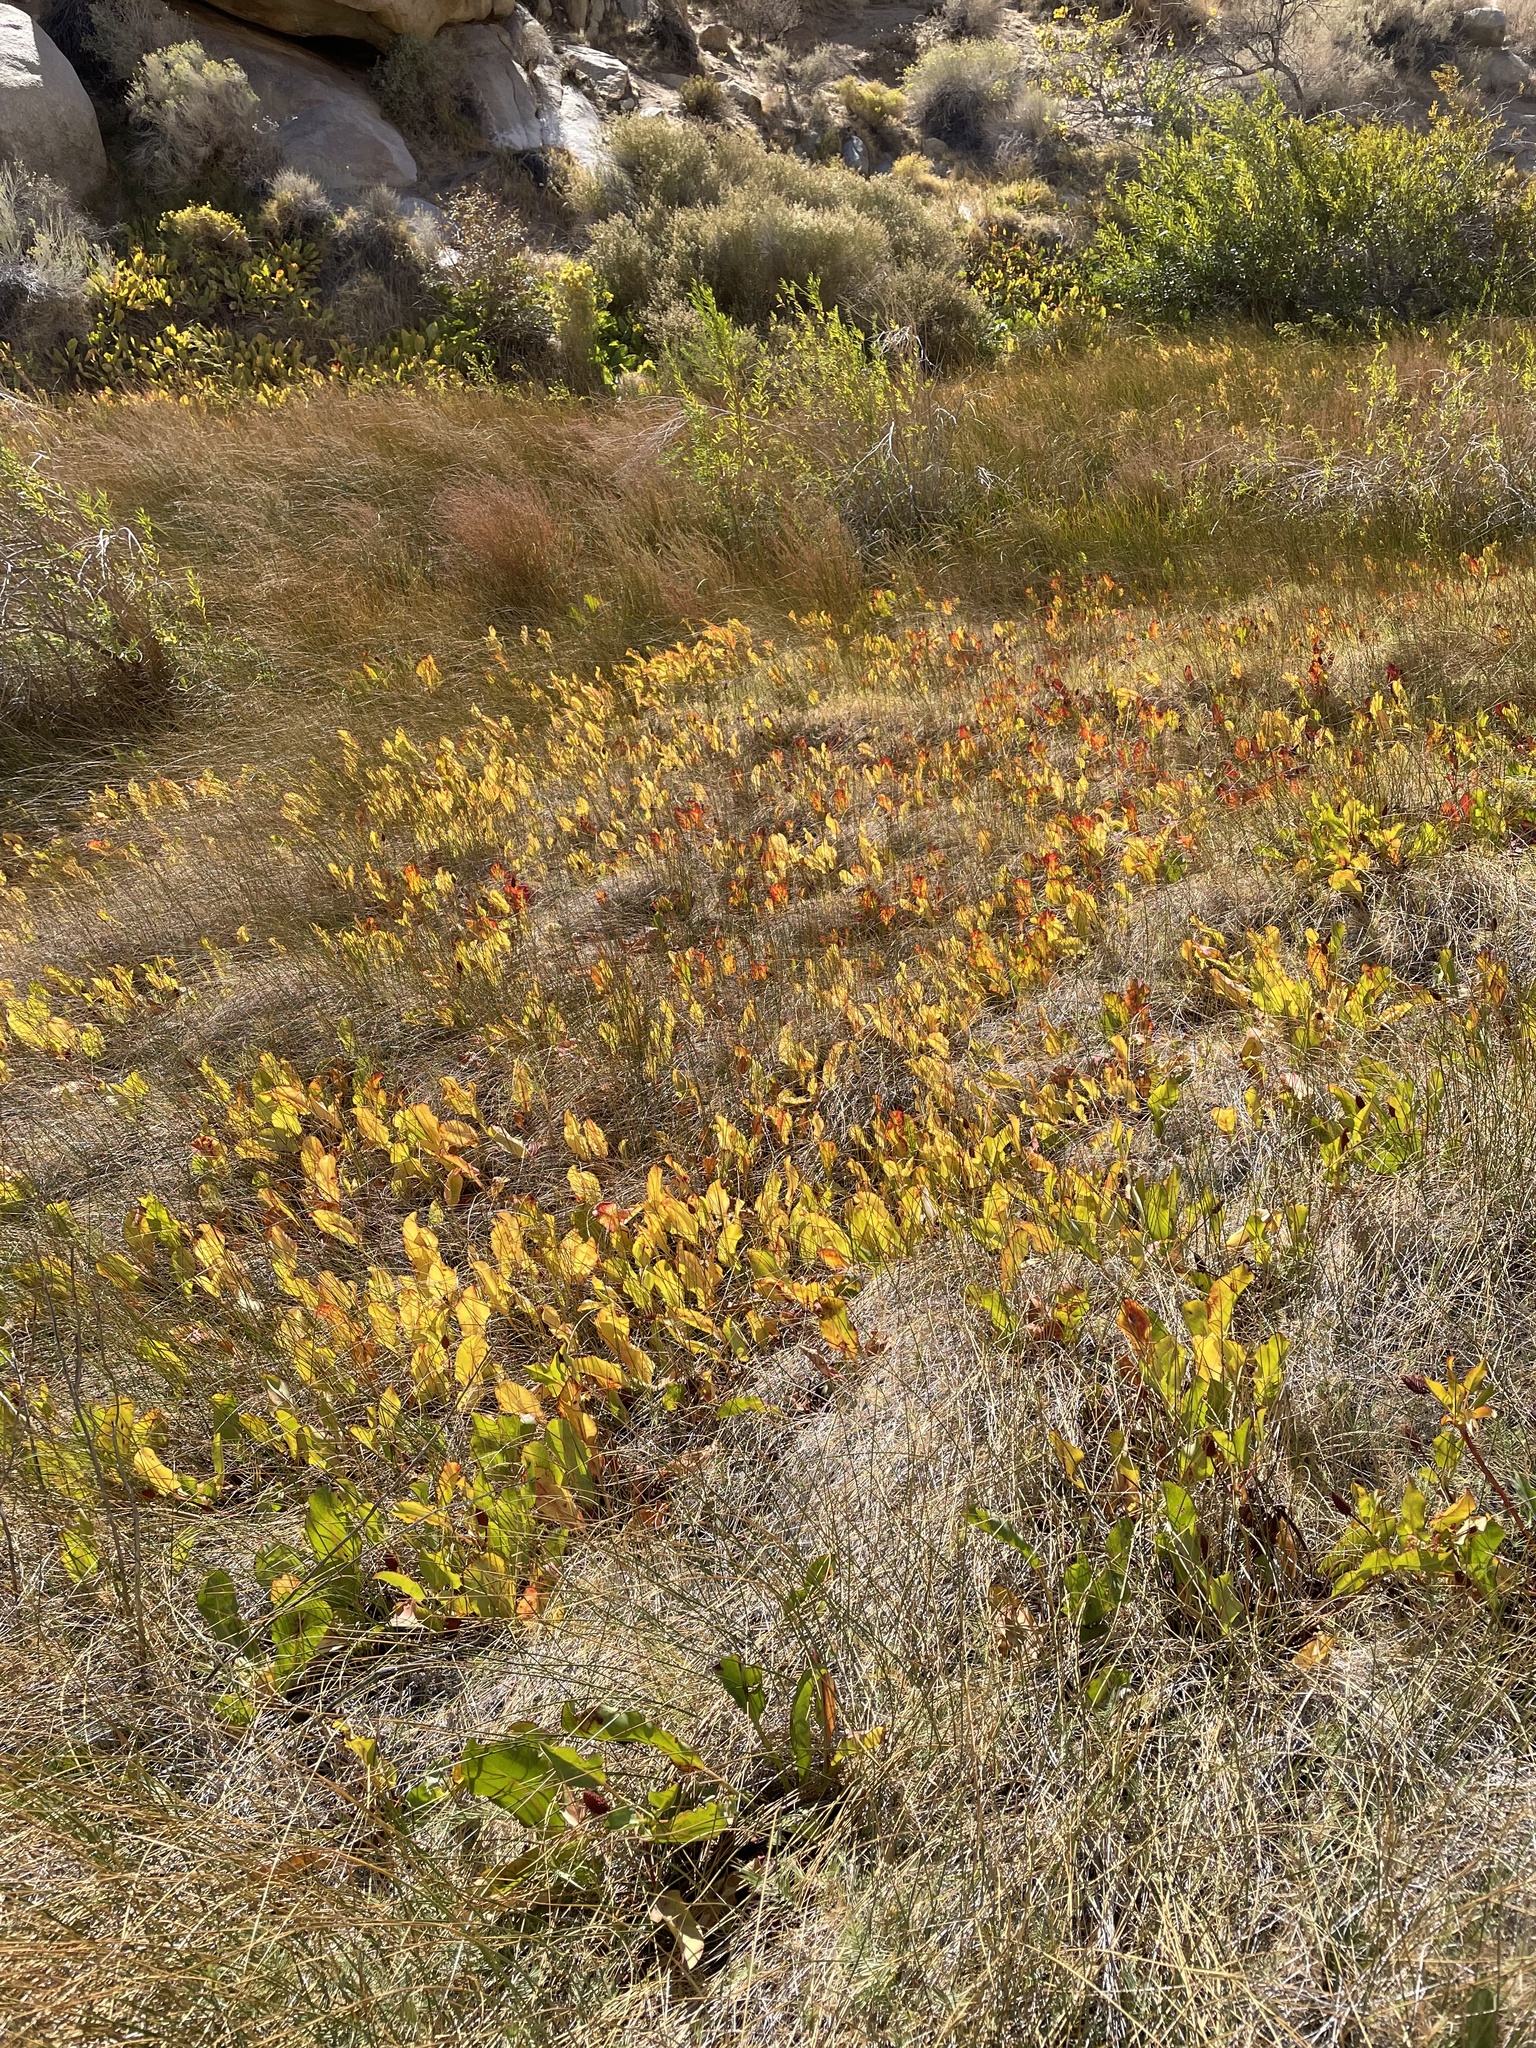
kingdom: Plantae
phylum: Tracheophyta
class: Magnoliopsida
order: Piperales
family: Saururaceae
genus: Anemopsis
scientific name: Anemopsis californica
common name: Apache-beads
